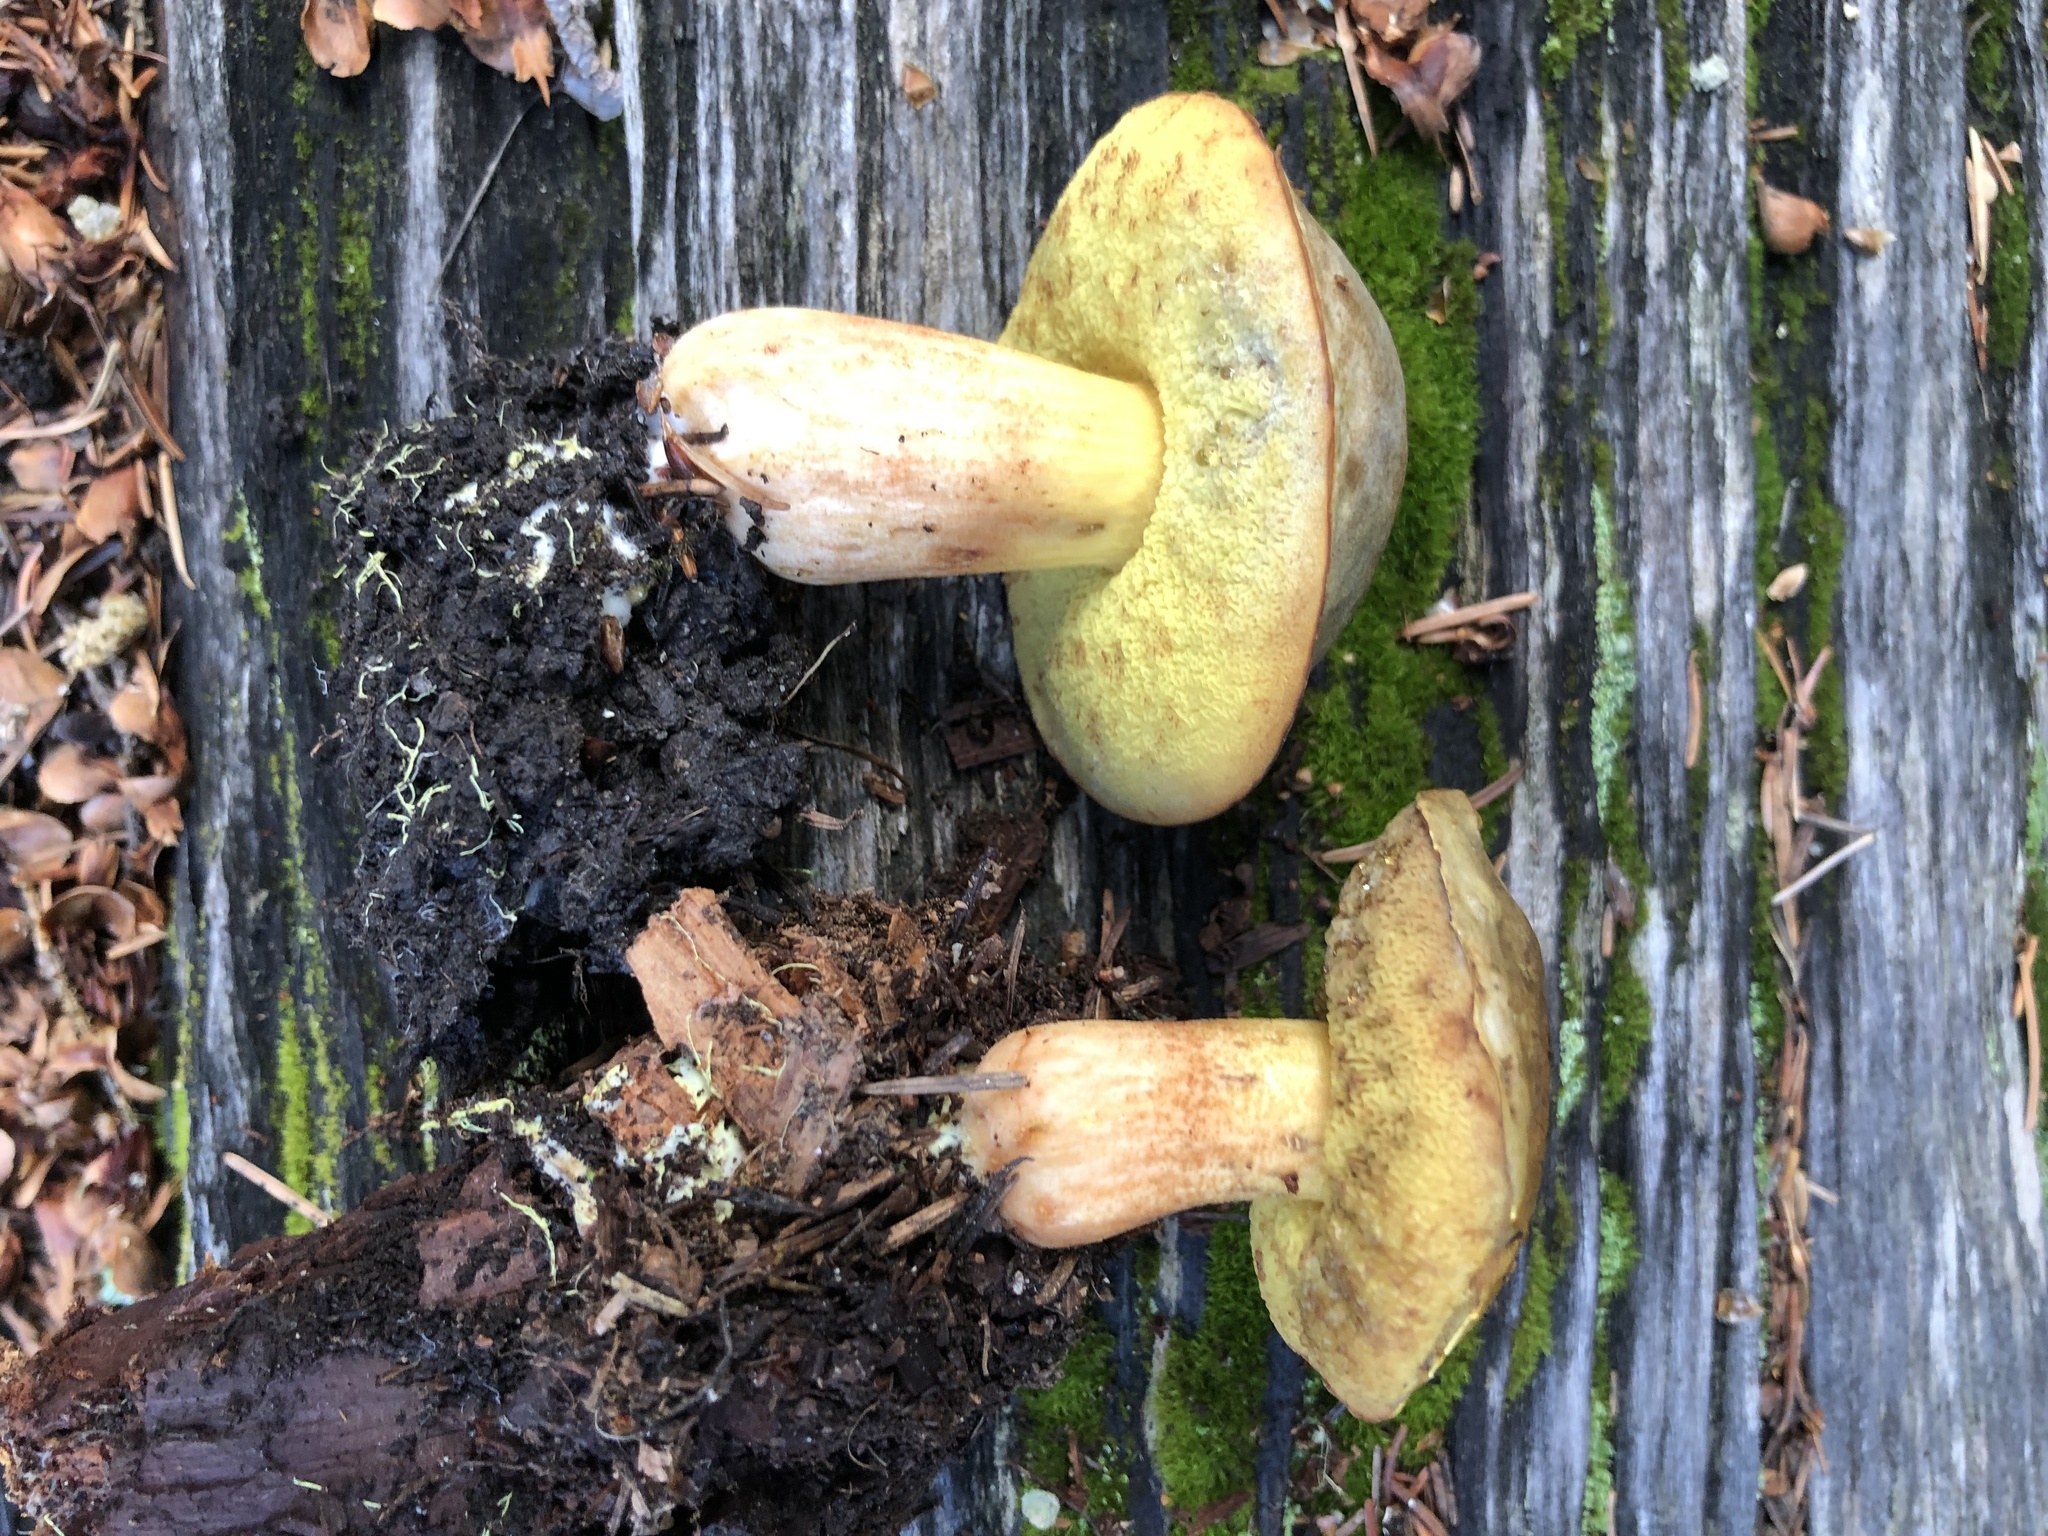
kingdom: Fungi
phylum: Basidiomycota
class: Agaricomycetes
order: Boletales
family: Boletaceae
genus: Xerocomus
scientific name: Xerocomus ferrugineus
